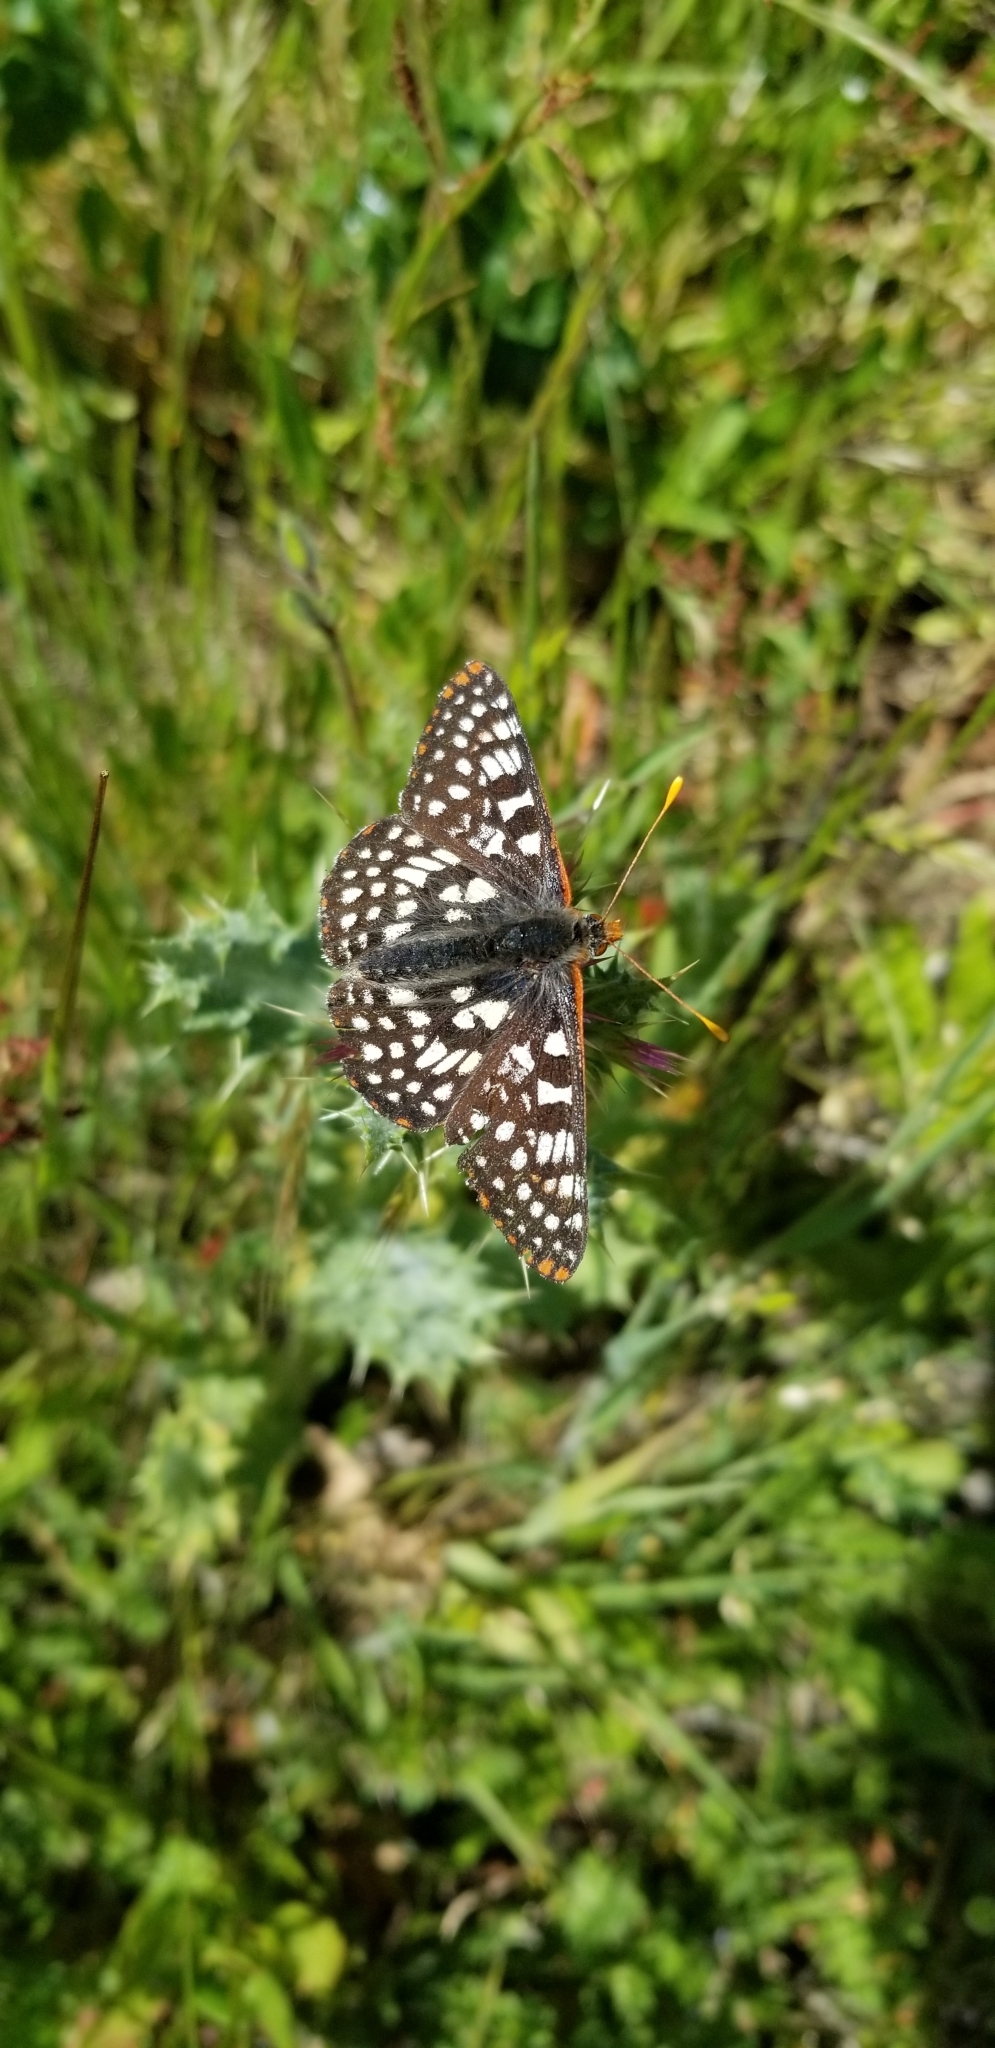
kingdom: Animalia
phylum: Arthropoda
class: Insecta
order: Lepidoptera
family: Nymphalidae
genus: Occidryas
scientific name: Occidryas chalcedona
